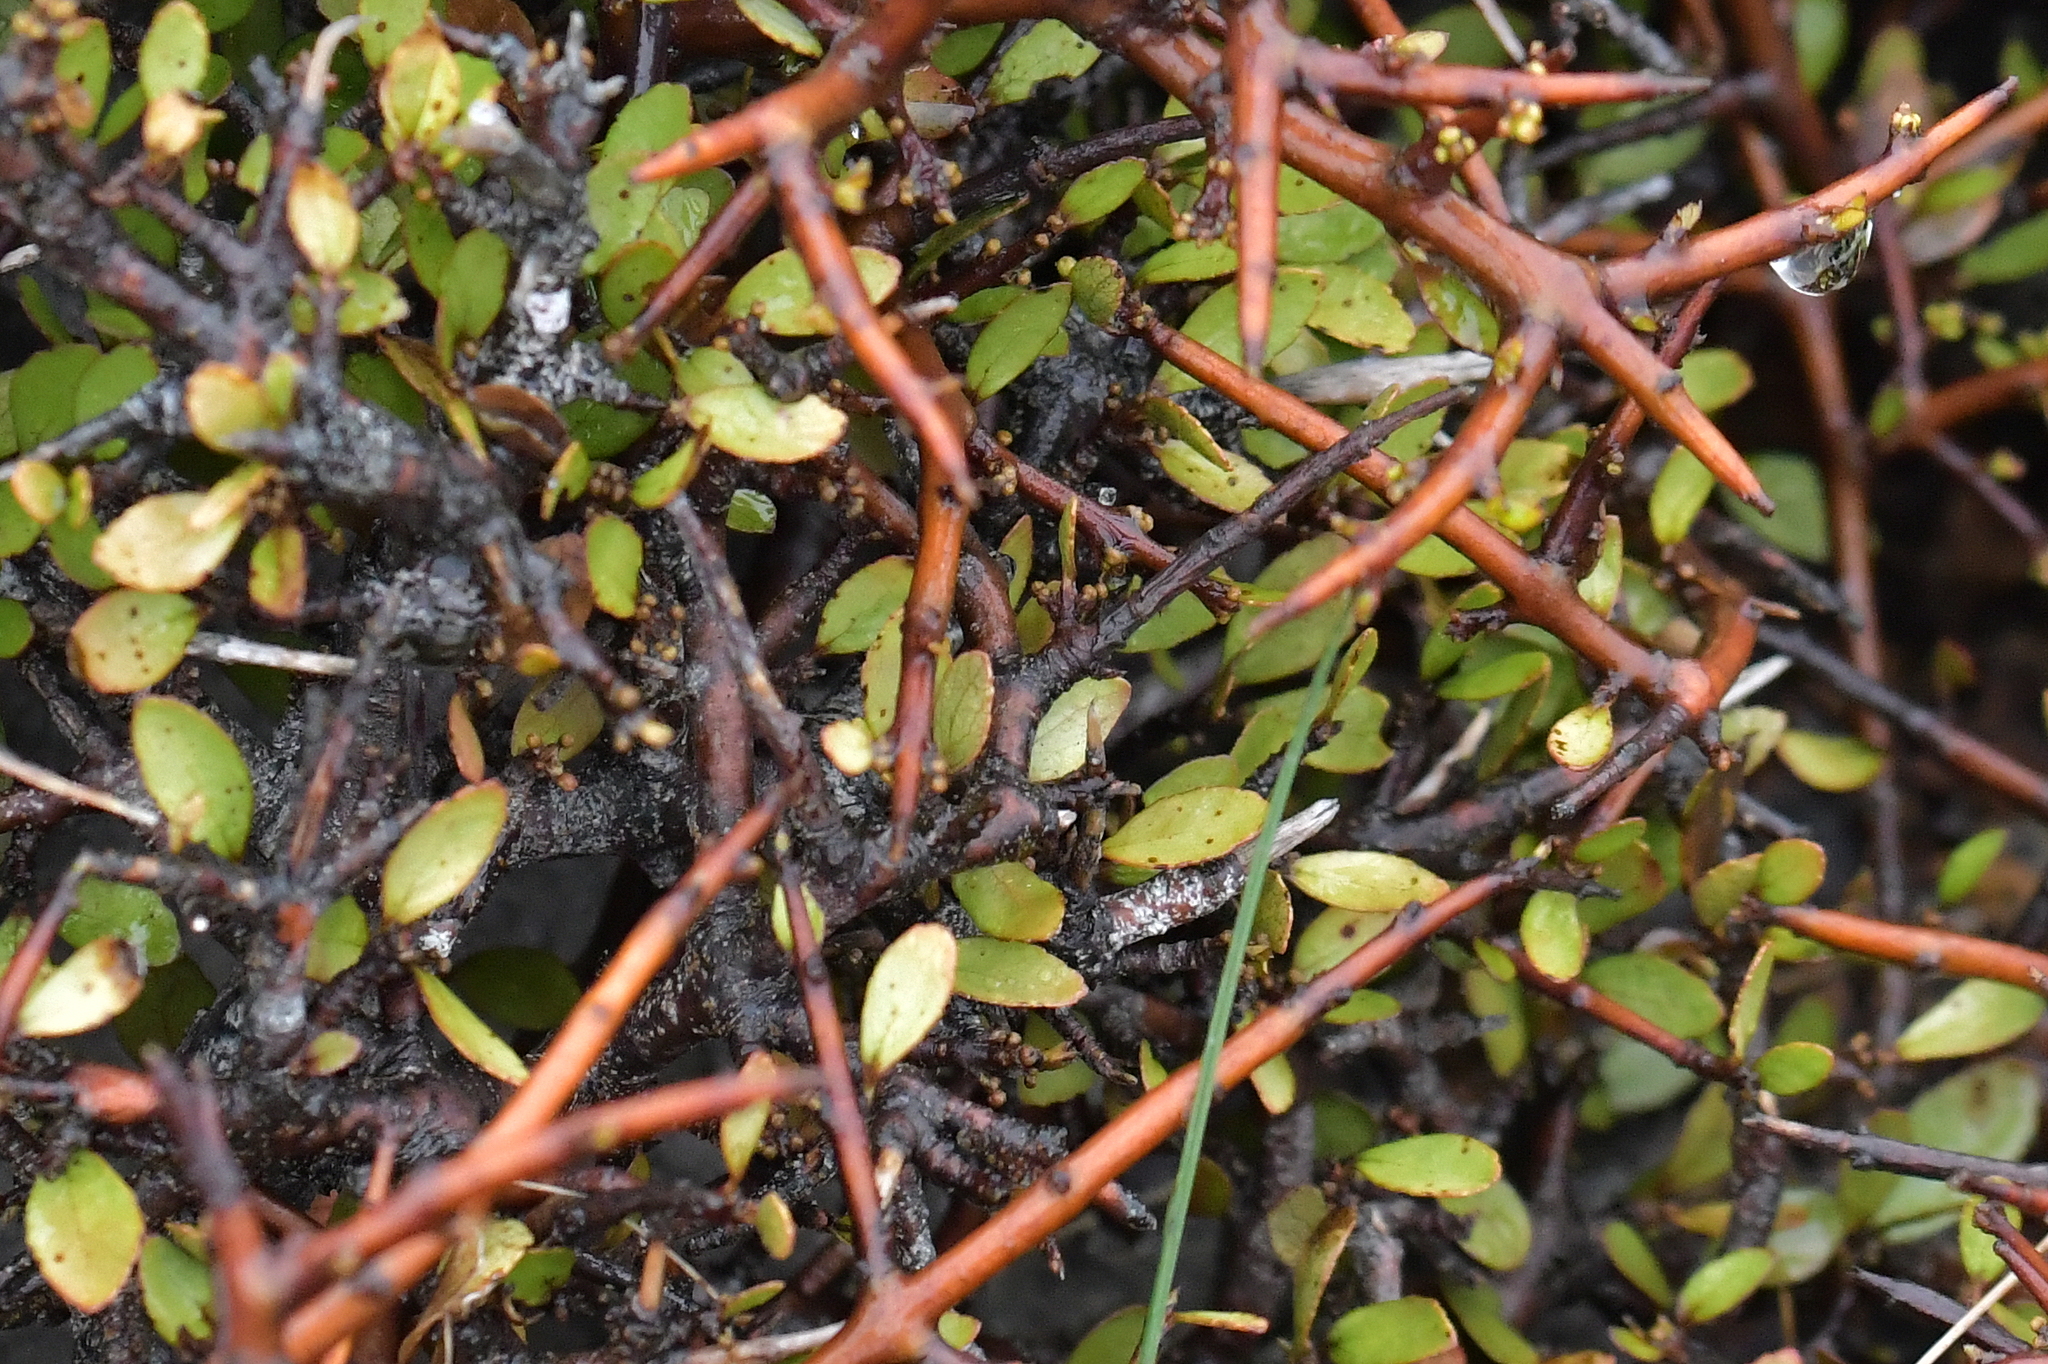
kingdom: Plantae
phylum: Tracheophyta
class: Magnoliopsida
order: Oxalidales
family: Elaeocarpaceae
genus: Aristotelia
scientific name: Aristotelia fruticosa
